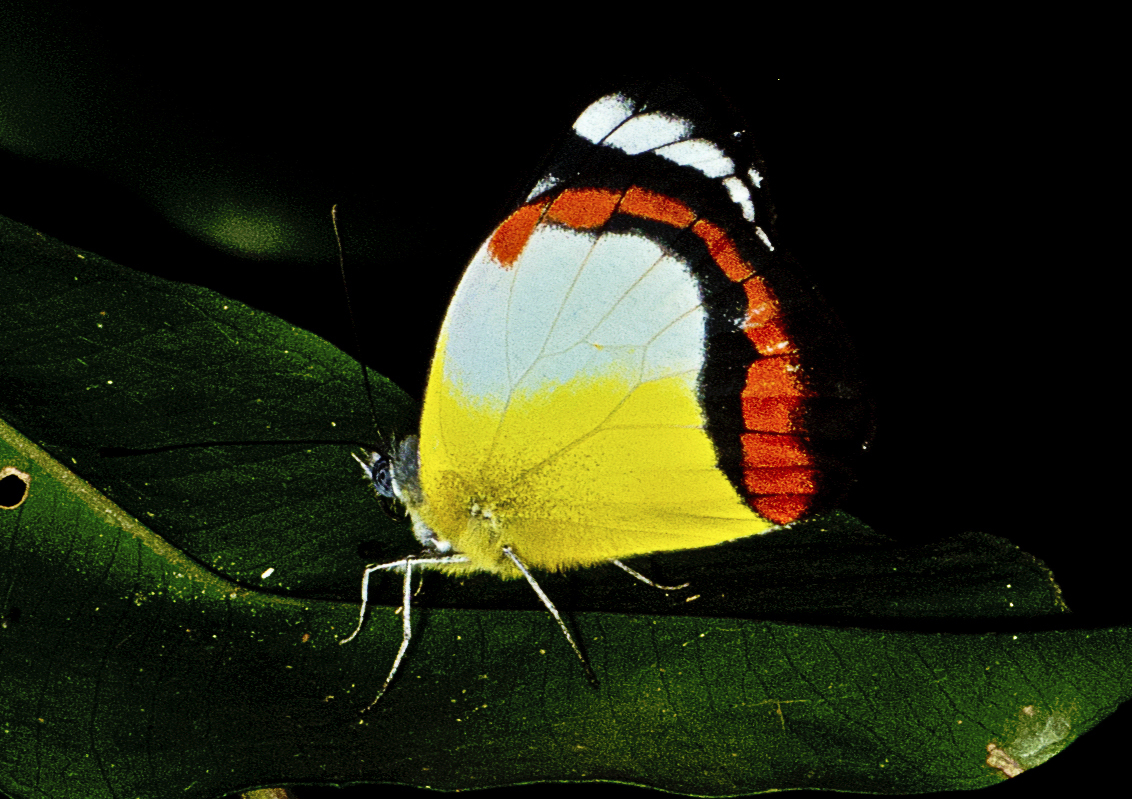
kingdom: Animalia
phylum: Arthropoda
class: Insecta
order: Lepidoptera
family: Pieridae
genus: Delias
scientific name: Delias mysis
